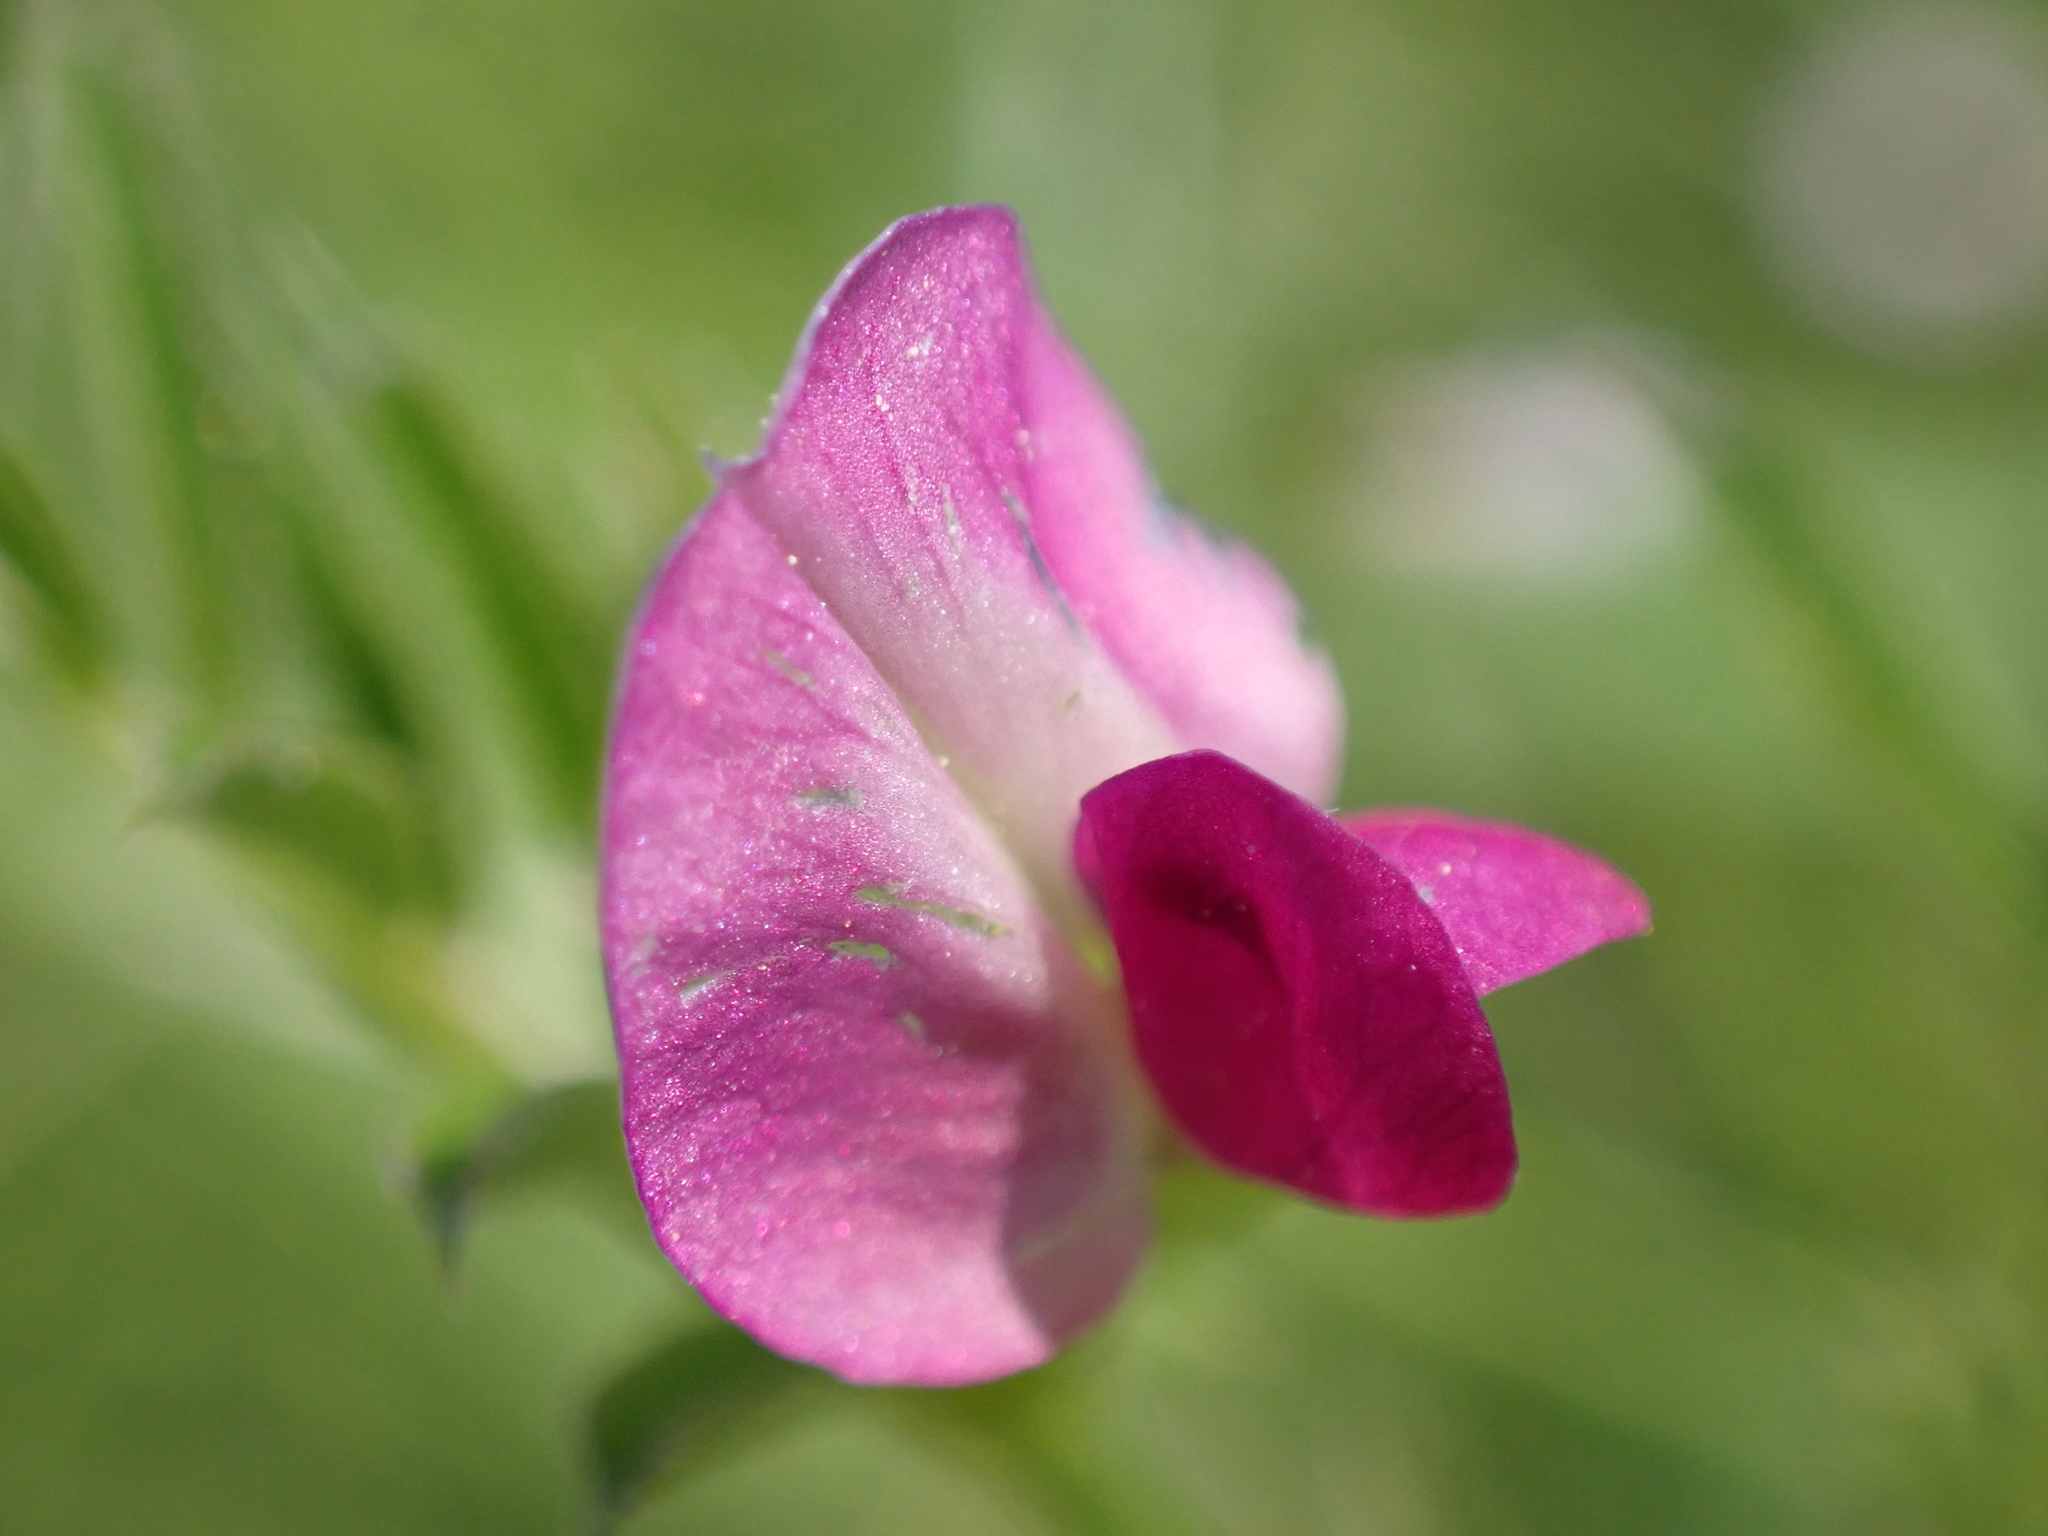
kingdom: Plantae
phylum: Tracheophyta
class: Magnoliopsida
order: Fabales
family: Fabaceae
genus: Vicia
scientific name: Vicia sativa
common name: Garden vetch
